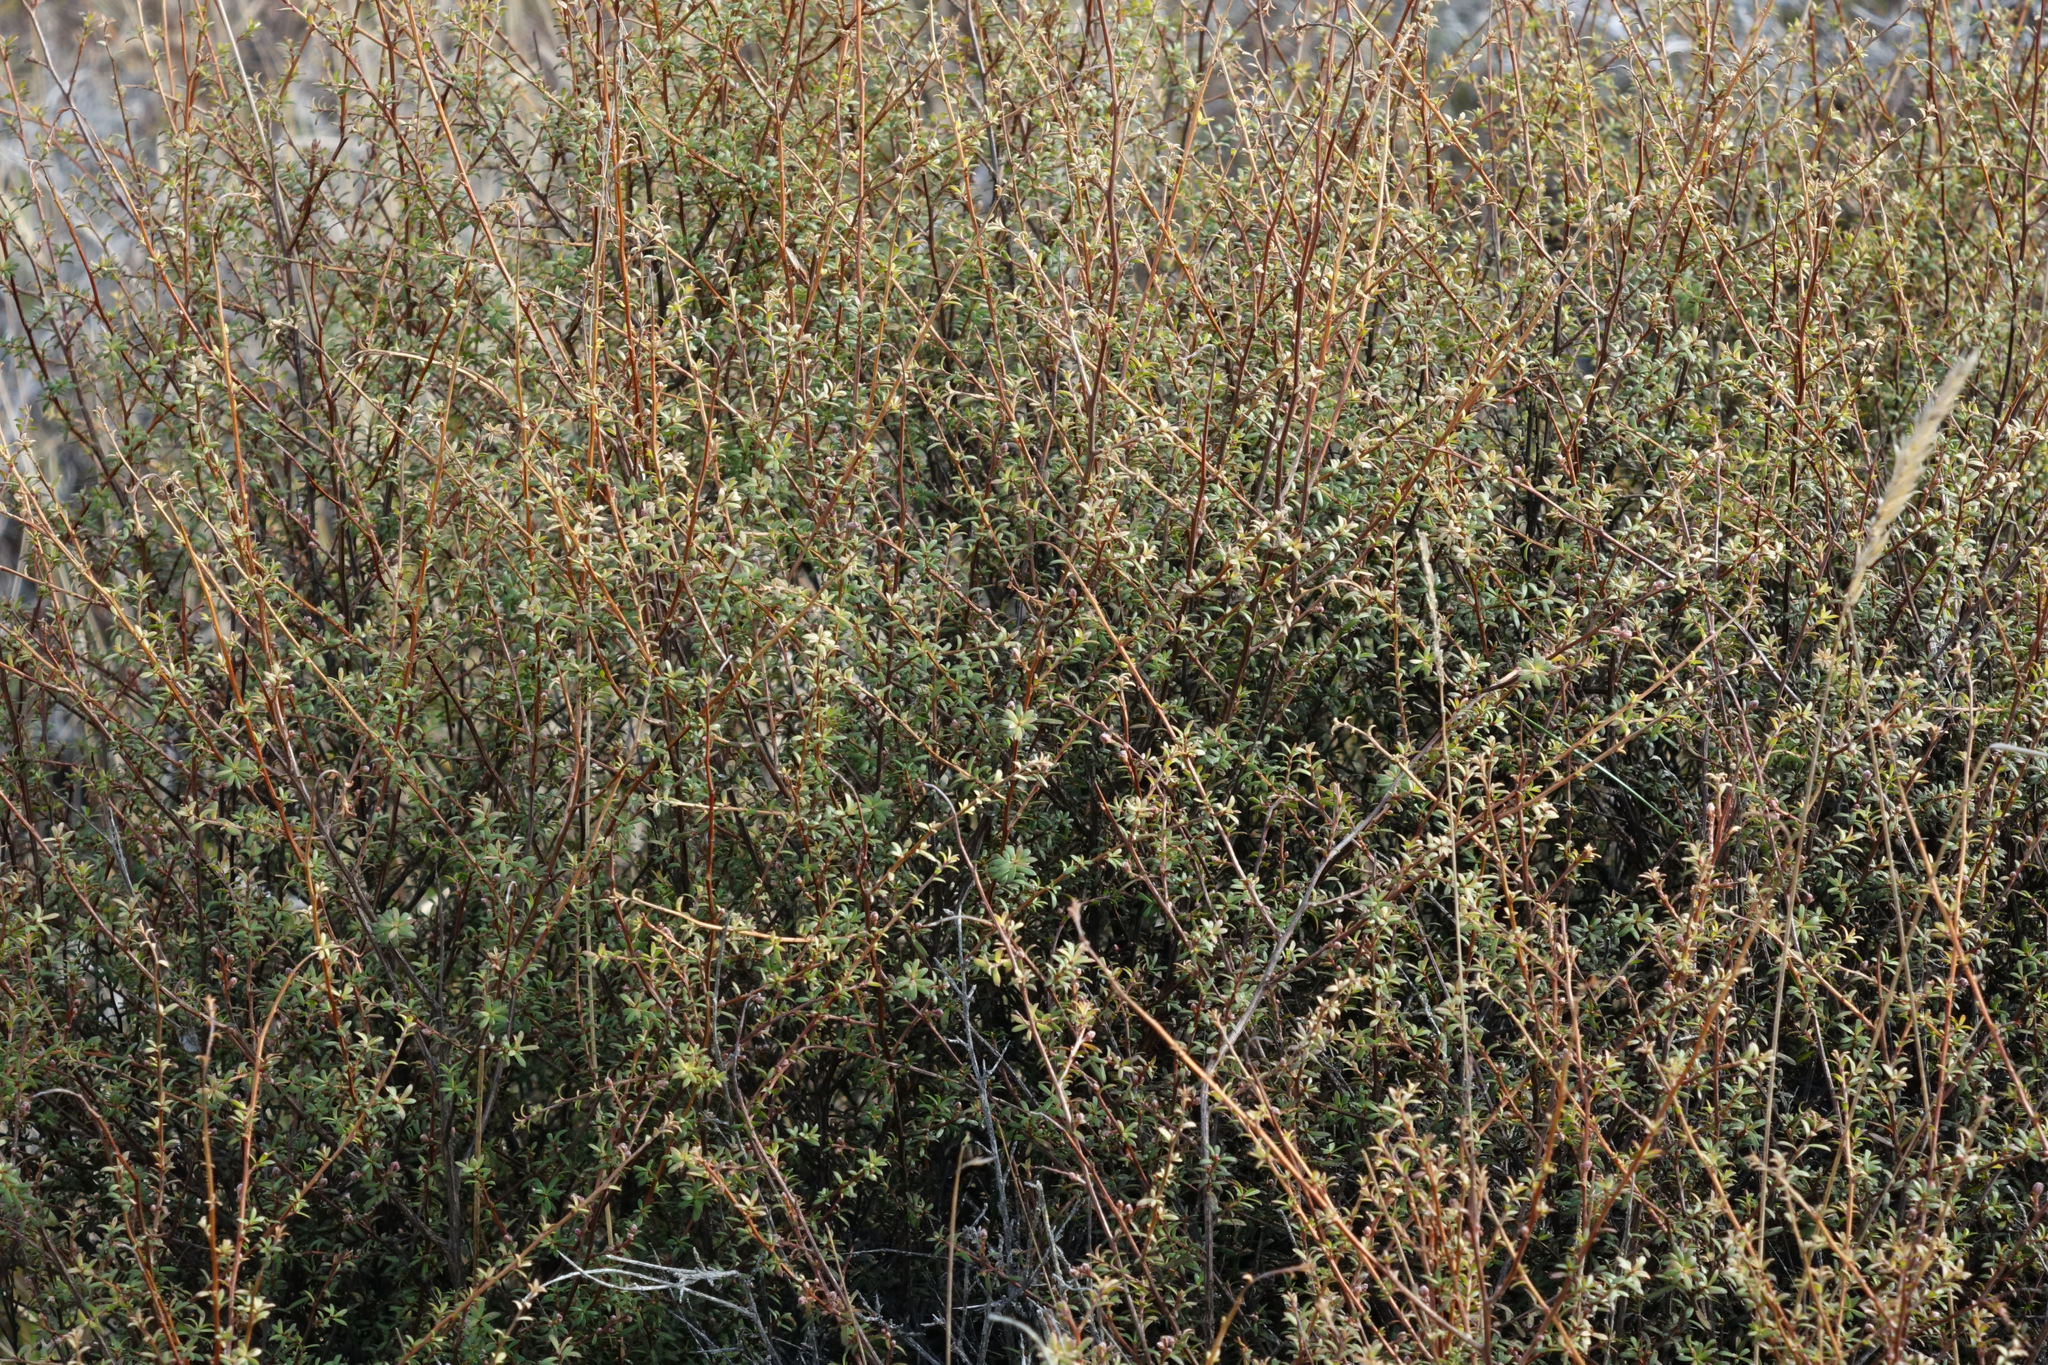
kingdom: Plantae
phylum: Tracheophyta
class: Magnoliopsida
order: Myrtales
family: Myrtaceae
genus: Kunzea
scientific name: Kunzea robusta
